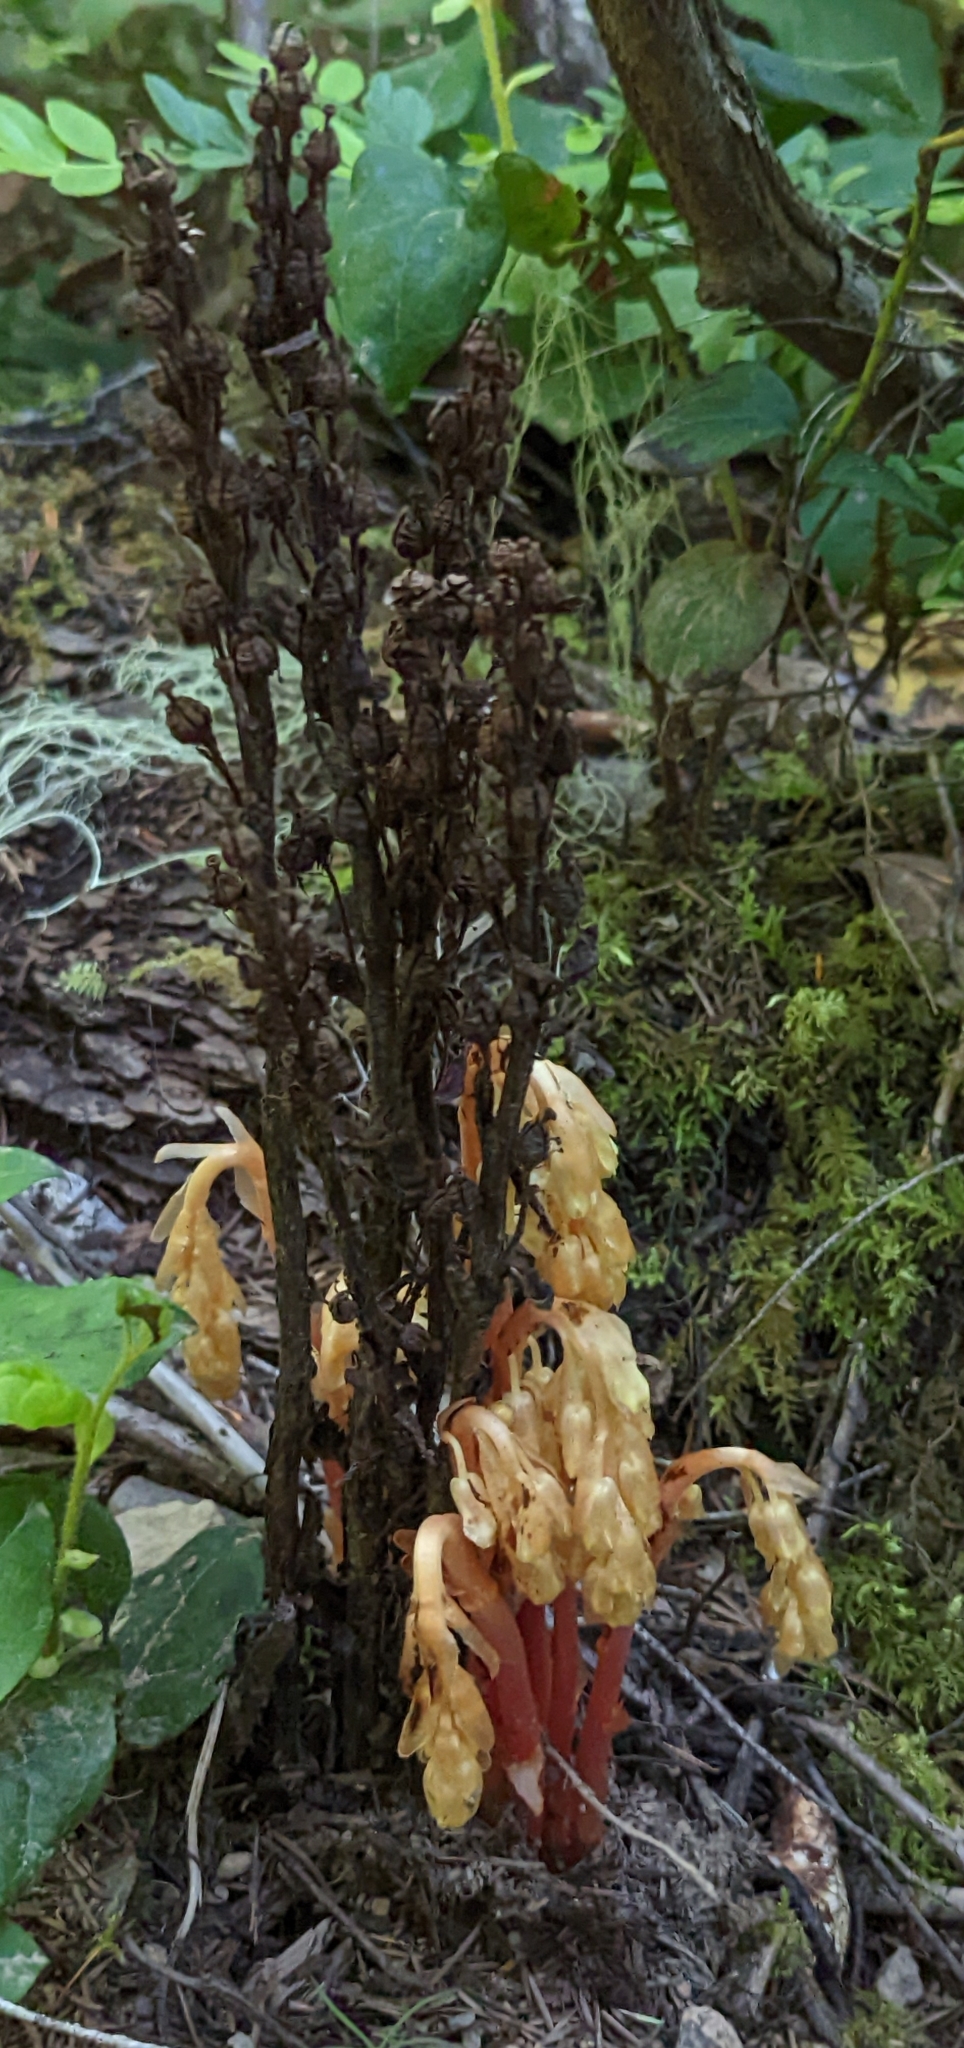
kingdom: Plantae
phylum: Tracheophyta
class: Magnoliopsida
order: Ericales
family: Ericaceae
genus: Hypopitys
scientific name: Hypopitys monotropa
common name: Yellow bird's-nest
